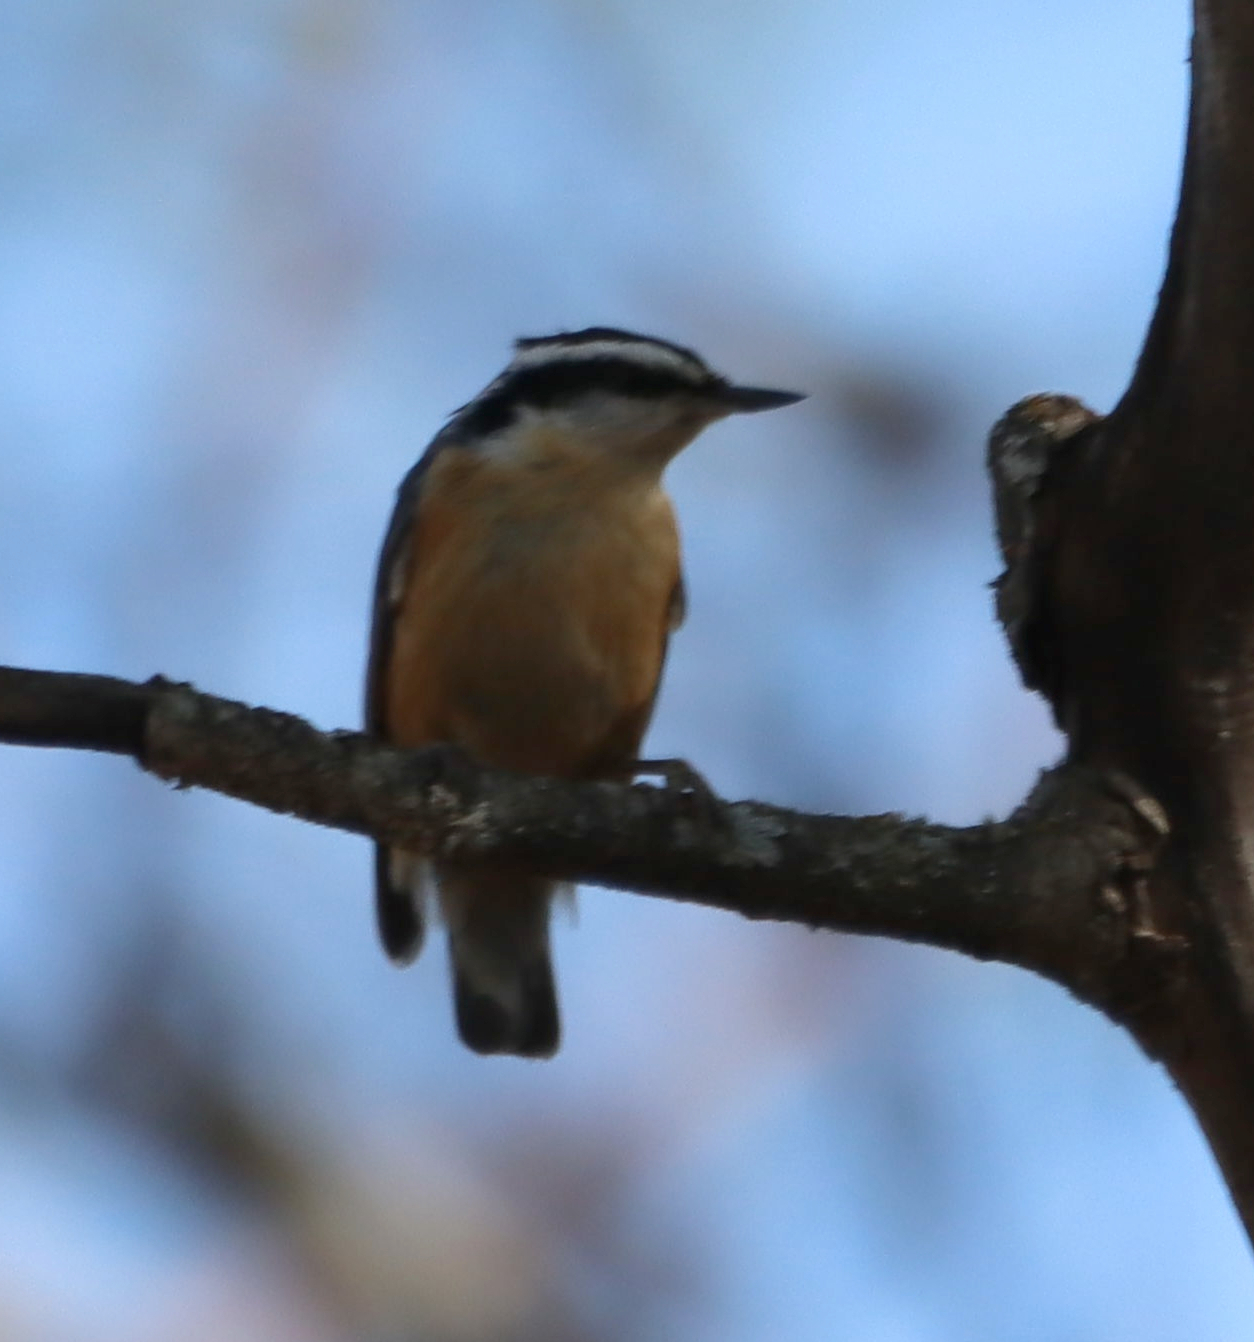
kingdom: Animalia
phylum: Chordata
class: Aves
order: Passeriformes
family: Sittidae
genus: Sitta
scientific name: Sitta canadensis
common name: Red-breasted nuthatch
